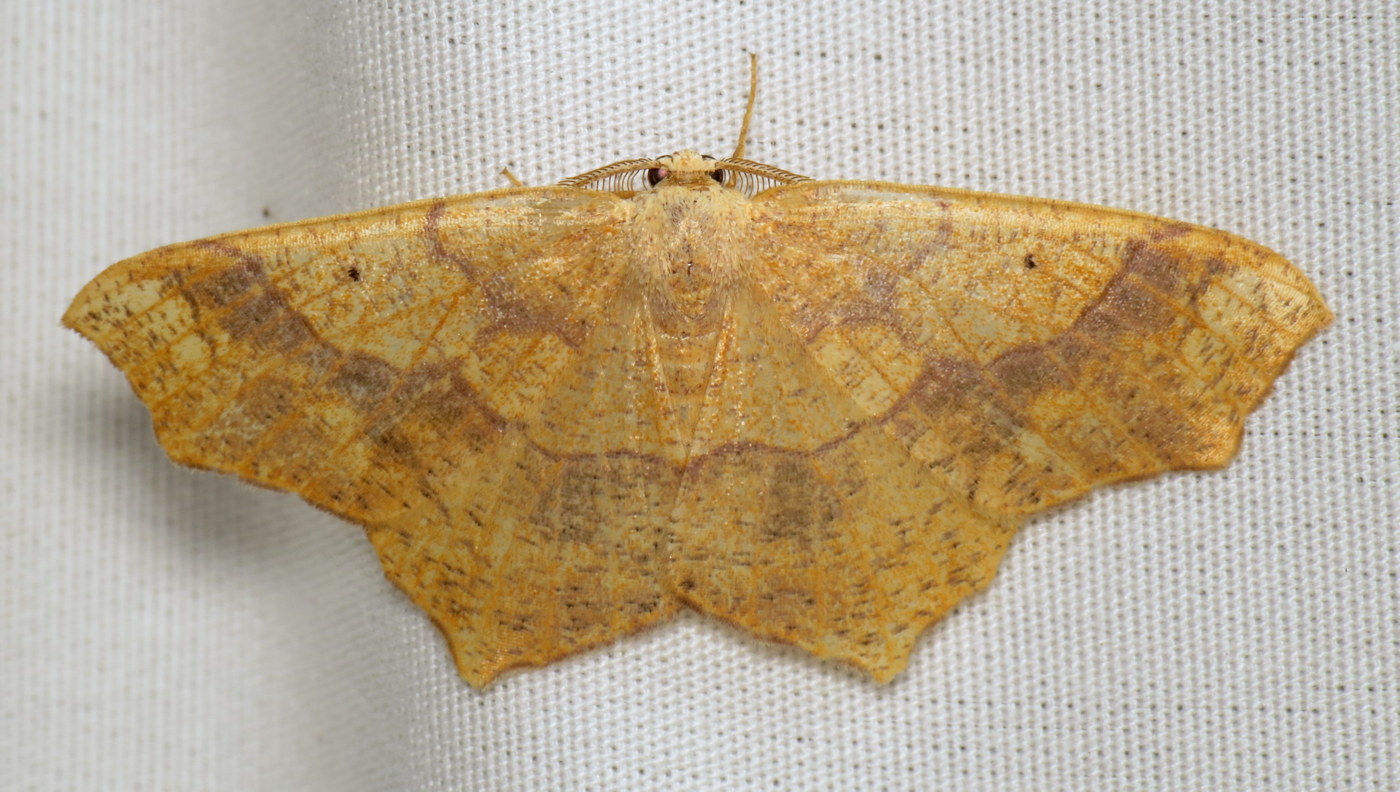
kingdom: Animalia
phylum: Arthropoda
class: Insecta
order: Lepidoptera
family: Geometridae
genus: Besma
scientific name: Besma quercivoraria
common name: Oak besma
